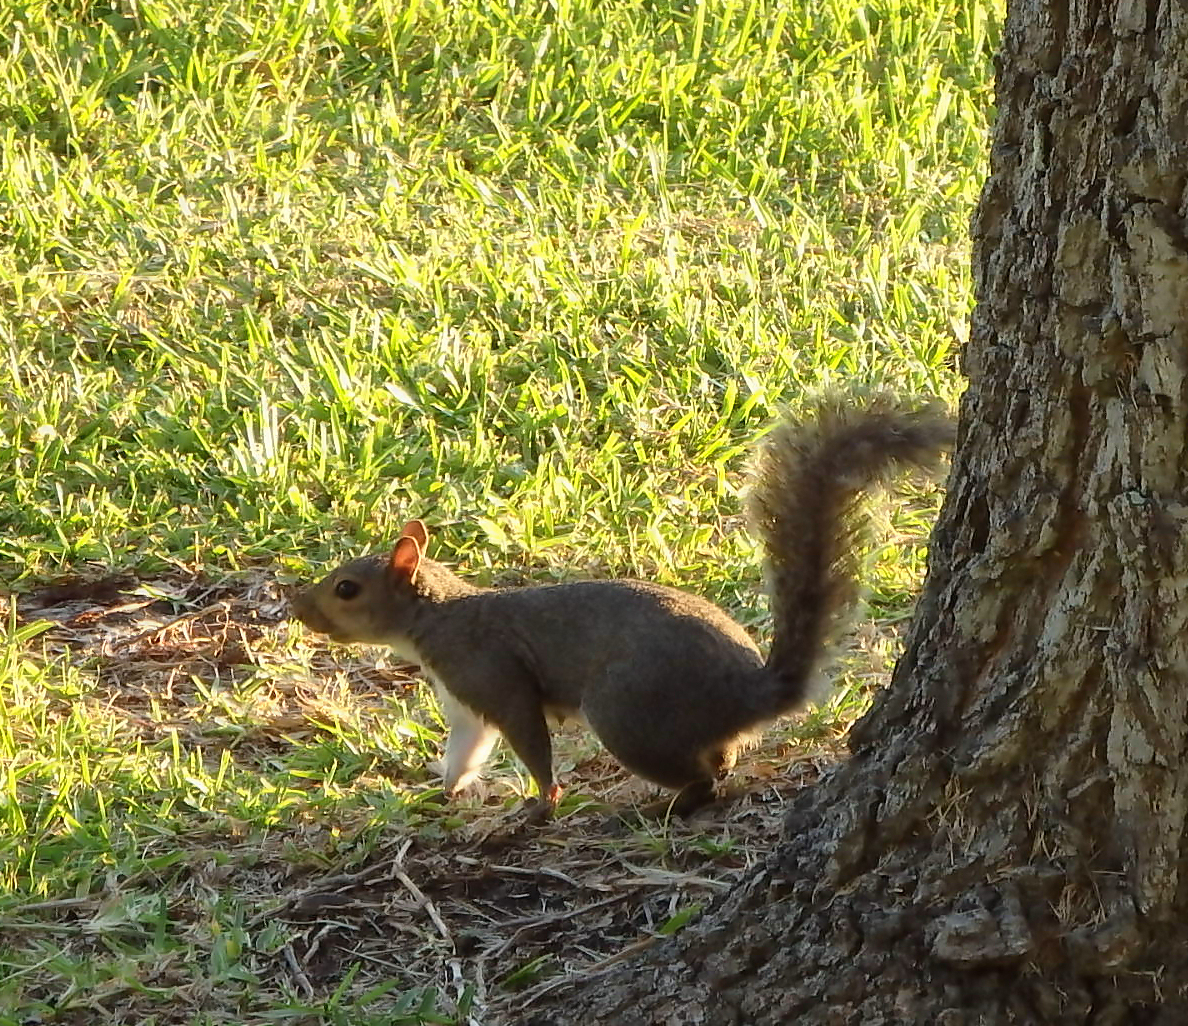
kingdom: Animalia
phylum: Chordata
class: Mammalia
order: Rodentia
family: Sciuridae
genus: Sciurus
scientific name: Sciurus carolinensis
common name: Eastern gray squirrel
